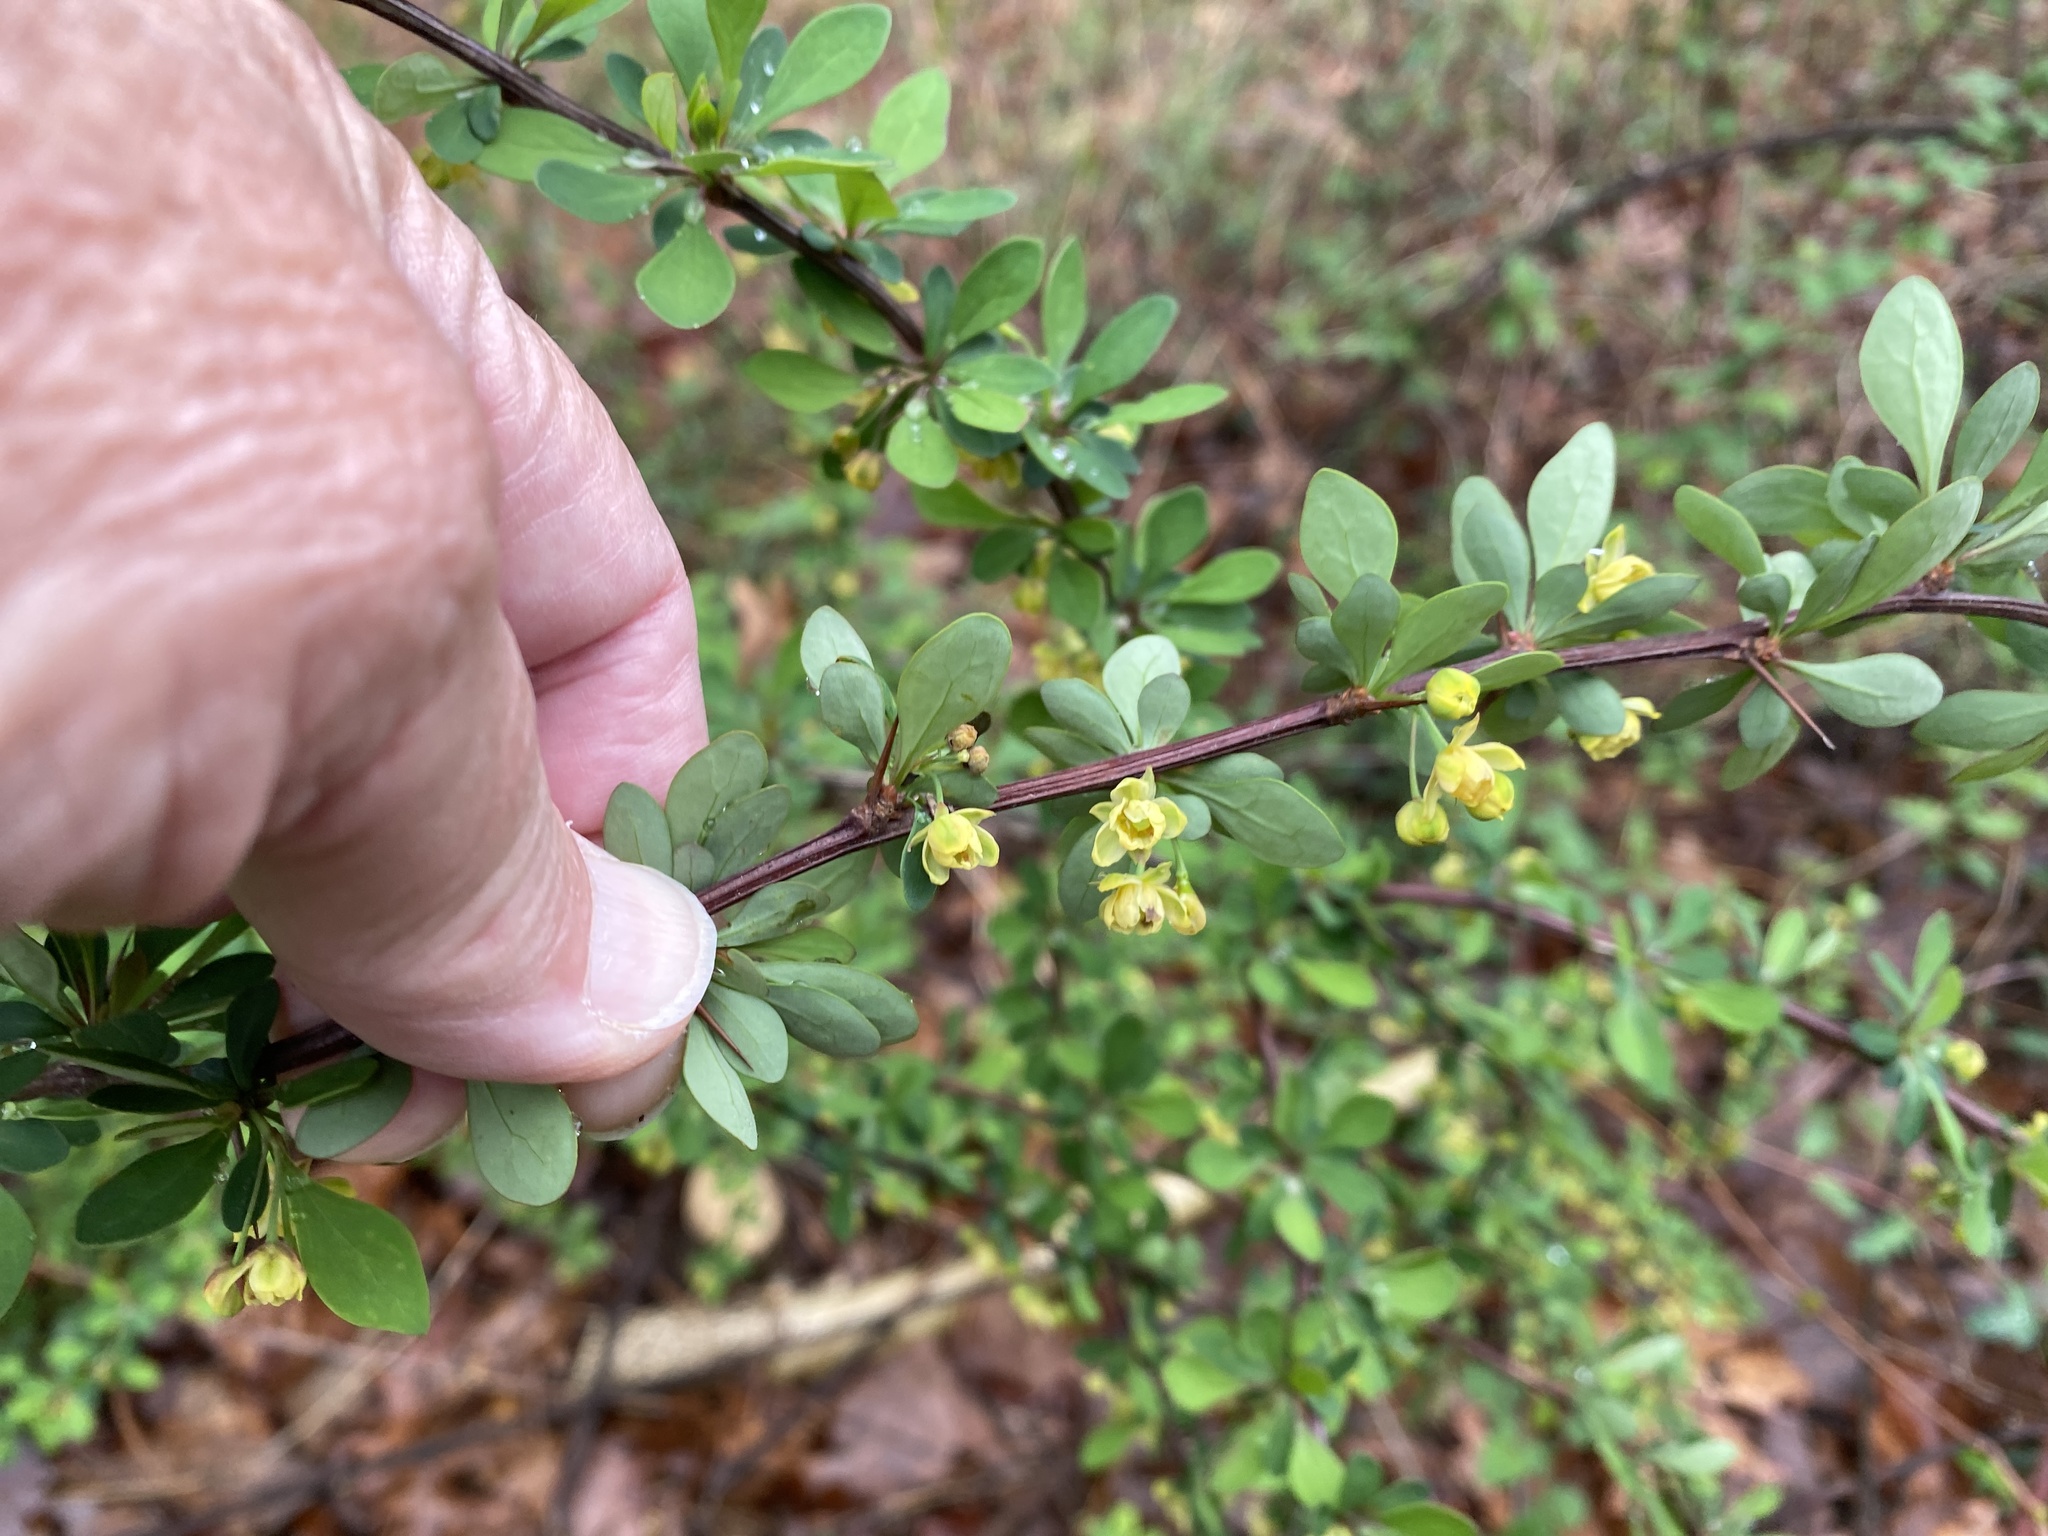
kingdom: Plantae
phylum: Tracheophyta
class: Magnoliopsida
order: Ranunculales
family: Berberidaceae
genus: Berberis
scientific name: Berberis thunbergii
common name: Japanese barberry
